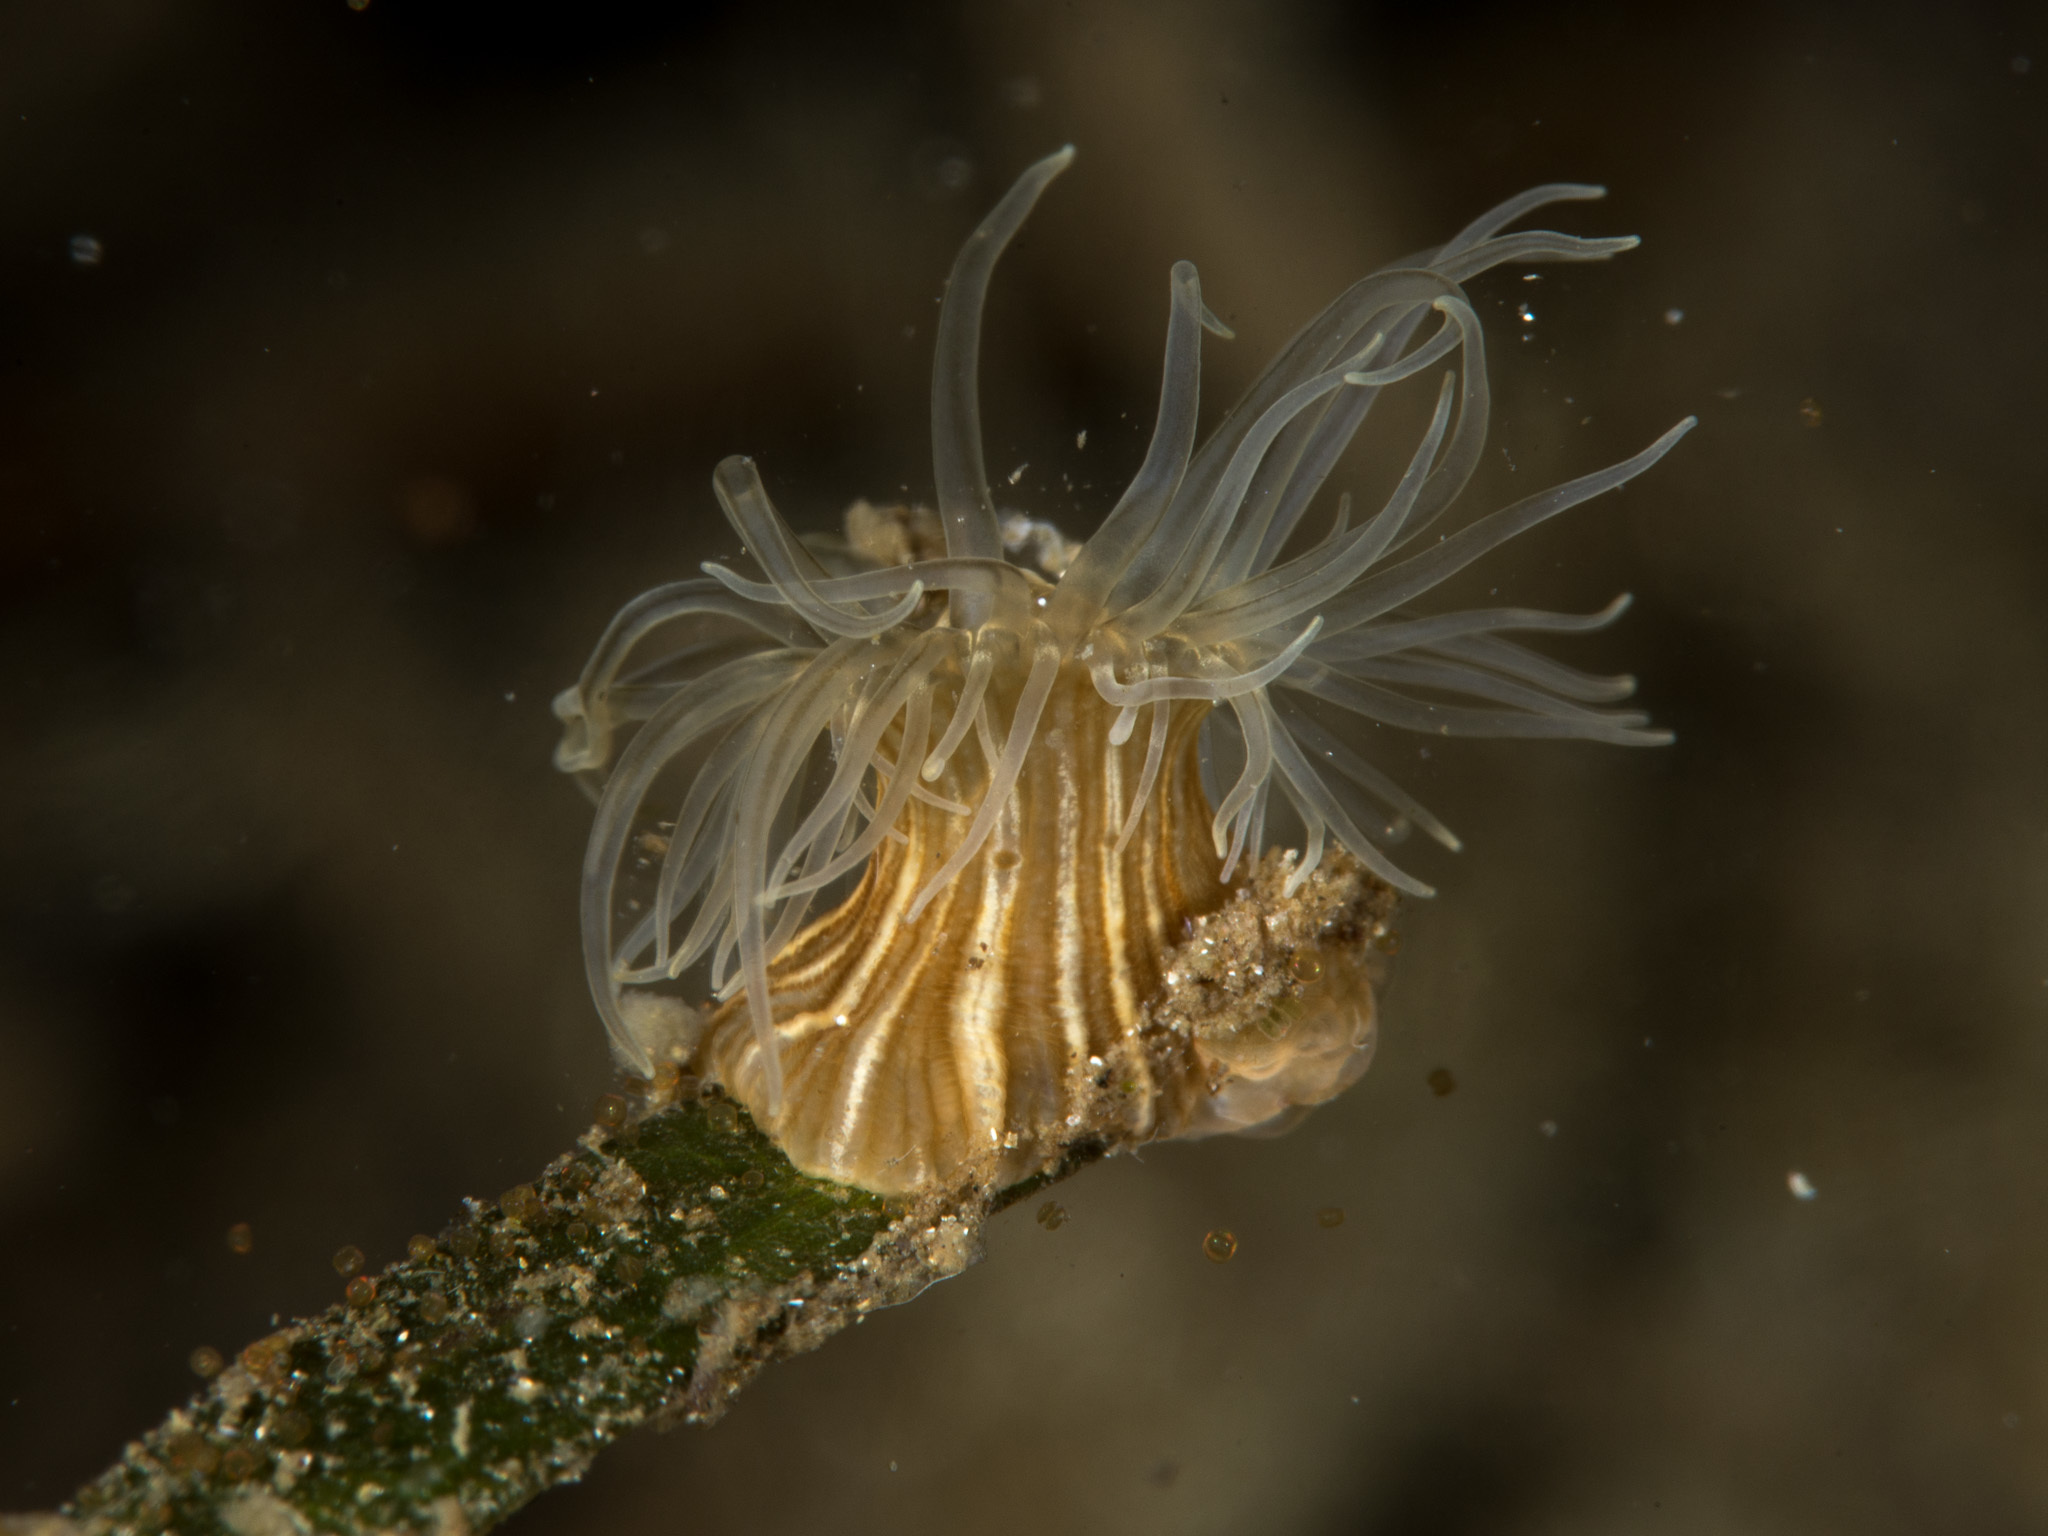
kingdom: Animalia
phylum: Cnidaria
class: Anthozoa
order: Actiniaria
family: Sagartiidae
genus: Sagartia
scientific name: Sagartia viduata
